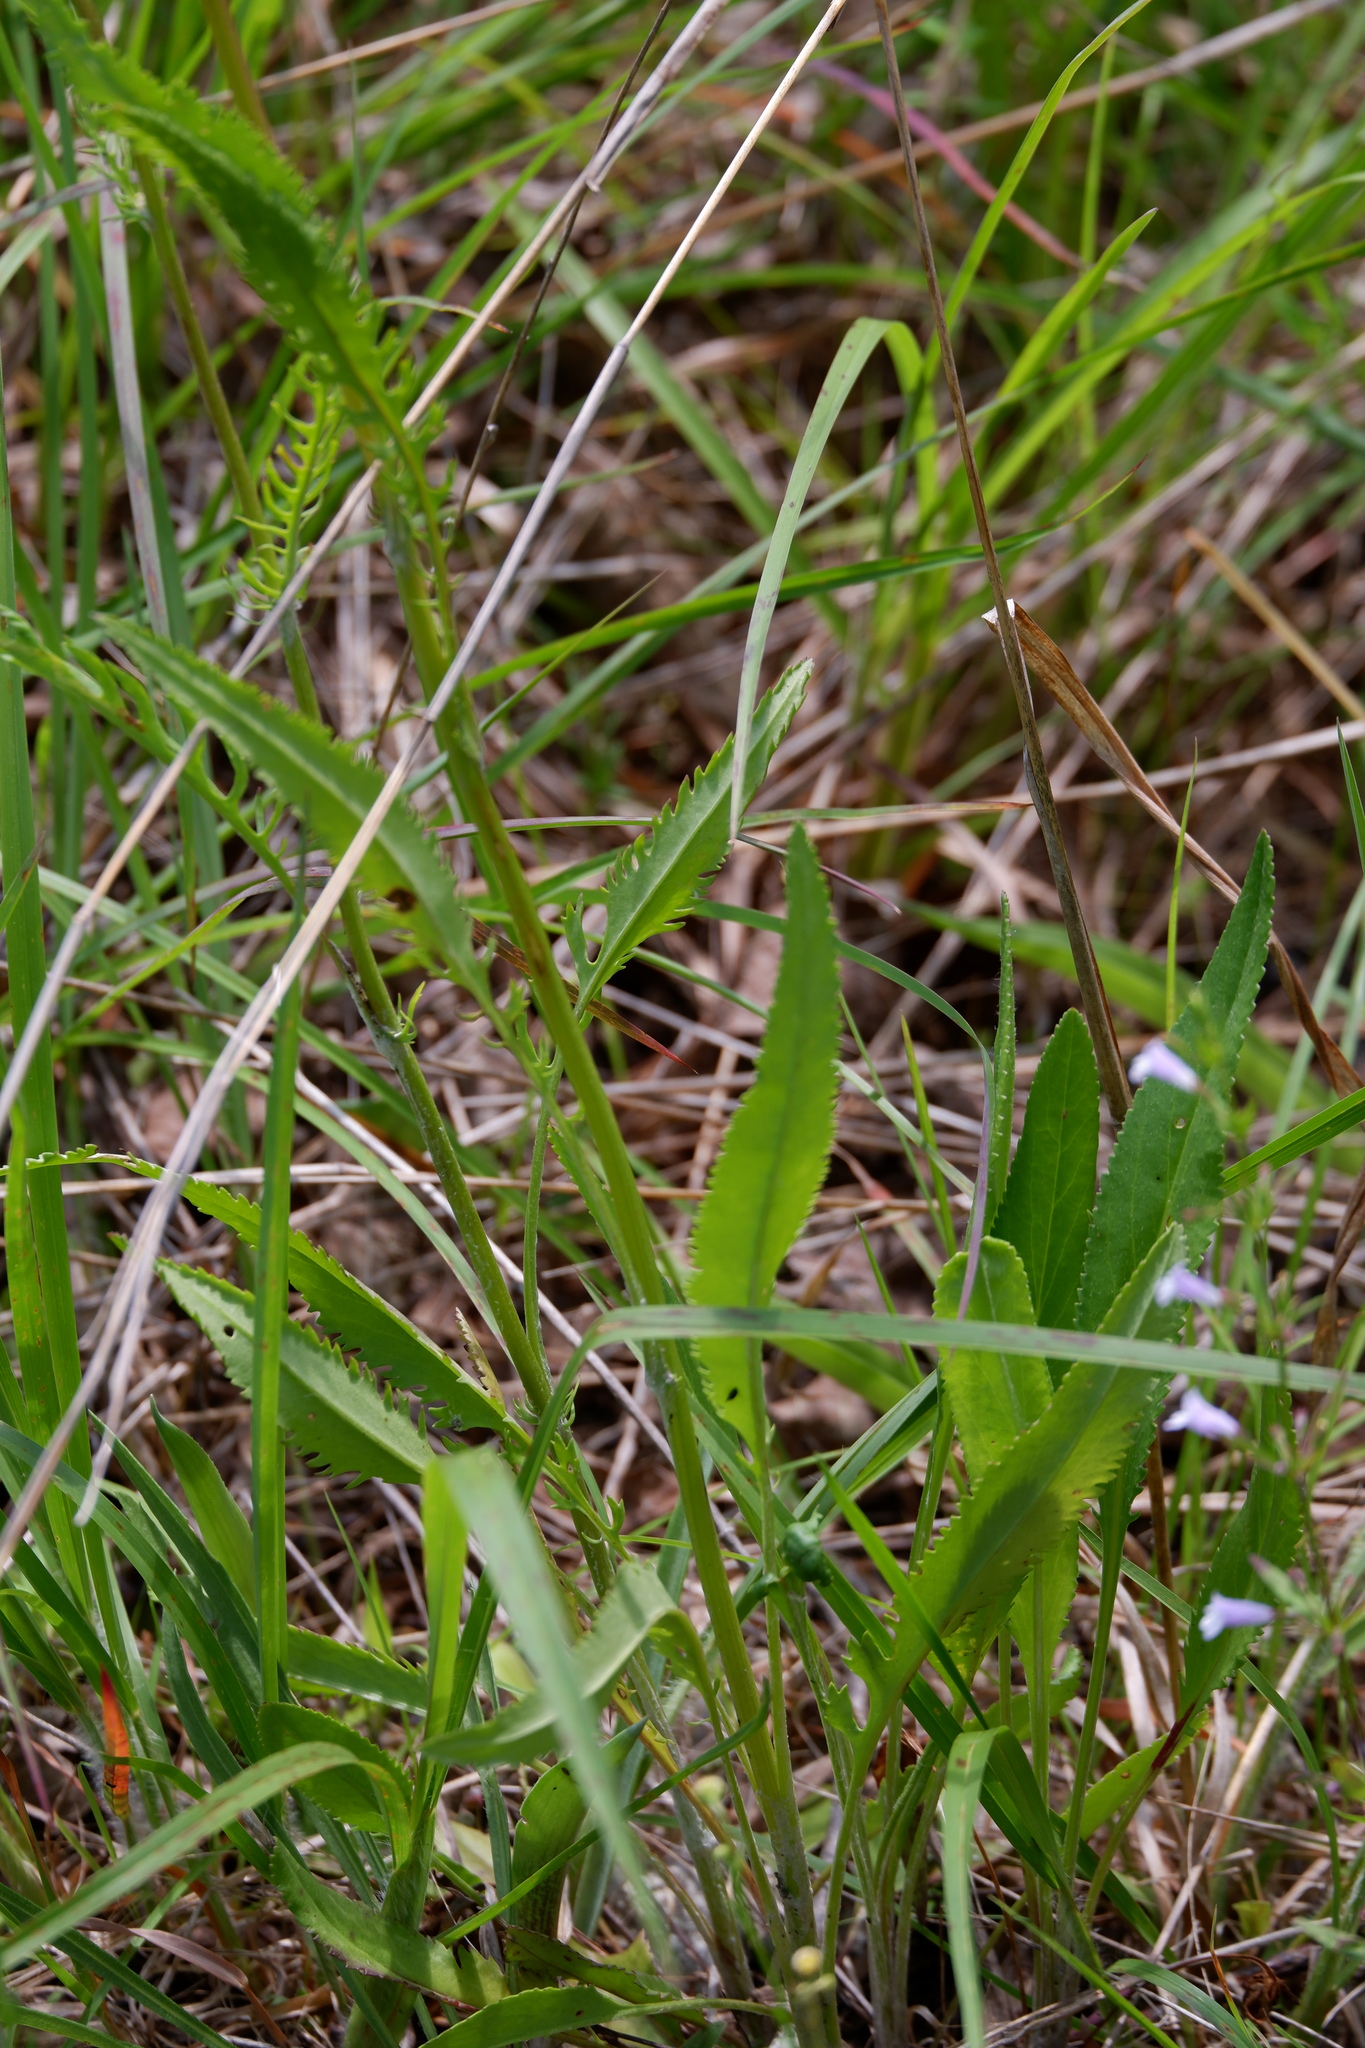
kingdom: Plantae
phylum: Tracheophyta
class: Magnoliopsida
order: Asterales
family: Asteraceae
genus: Packera
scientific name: Packera anonyma
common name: Small ragwort
